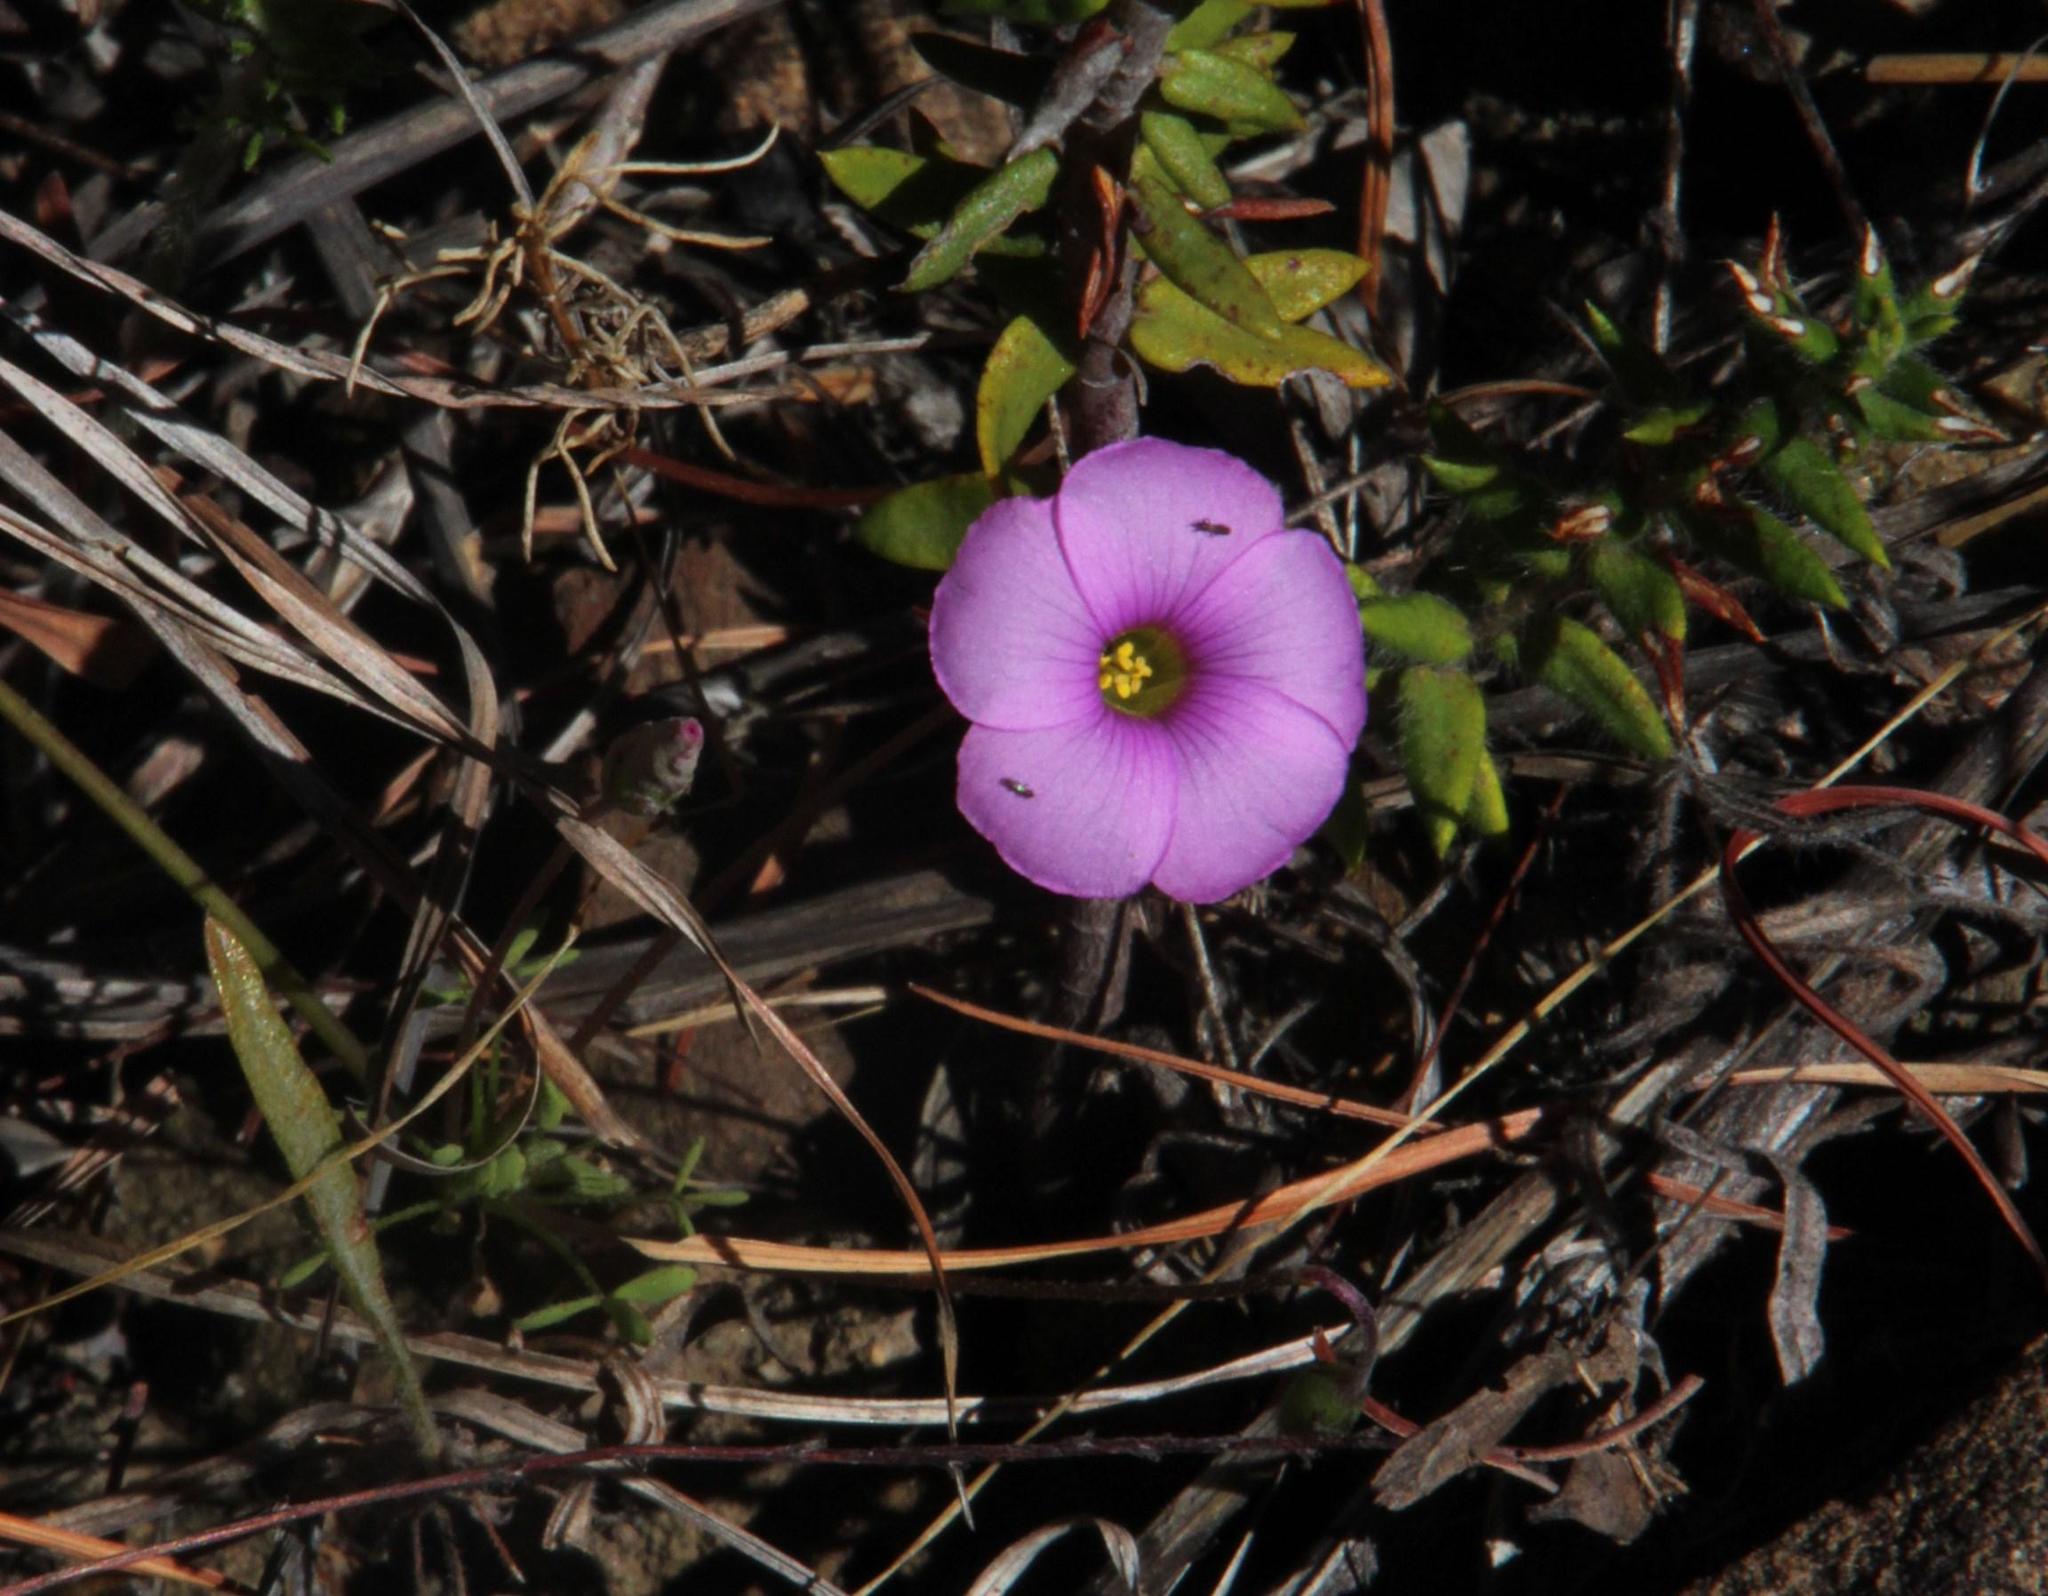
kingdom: Plantae
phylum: Tracheophyta
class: Magnoliopsida
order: Oxalidales
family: Oxalidaceae
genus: Oxalis
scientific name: Oxalis bifida
